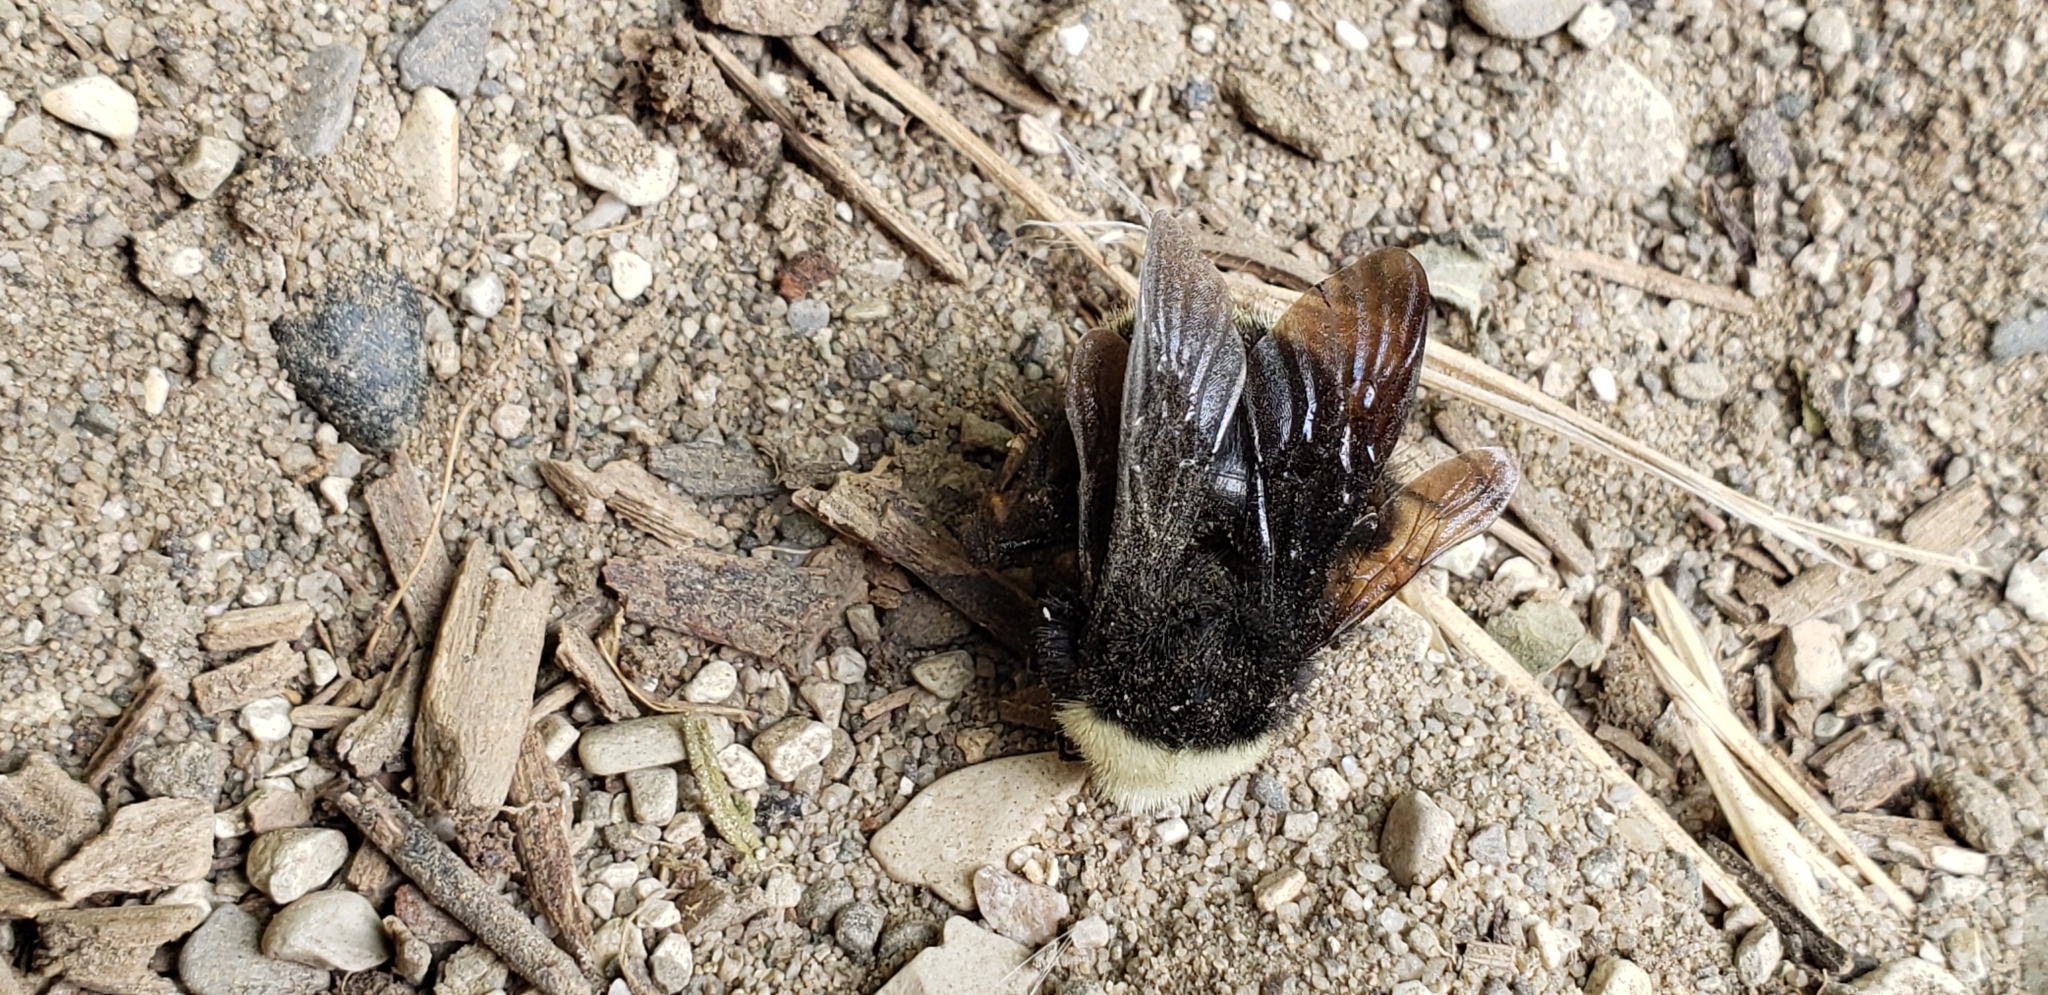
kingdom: Animalia
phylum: Arthropoda
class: Insecta
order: Hymenoptera
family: Apidae
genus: Bombus
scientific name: Bombus vosnesenskii
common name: Vosnesensky bumble bee
